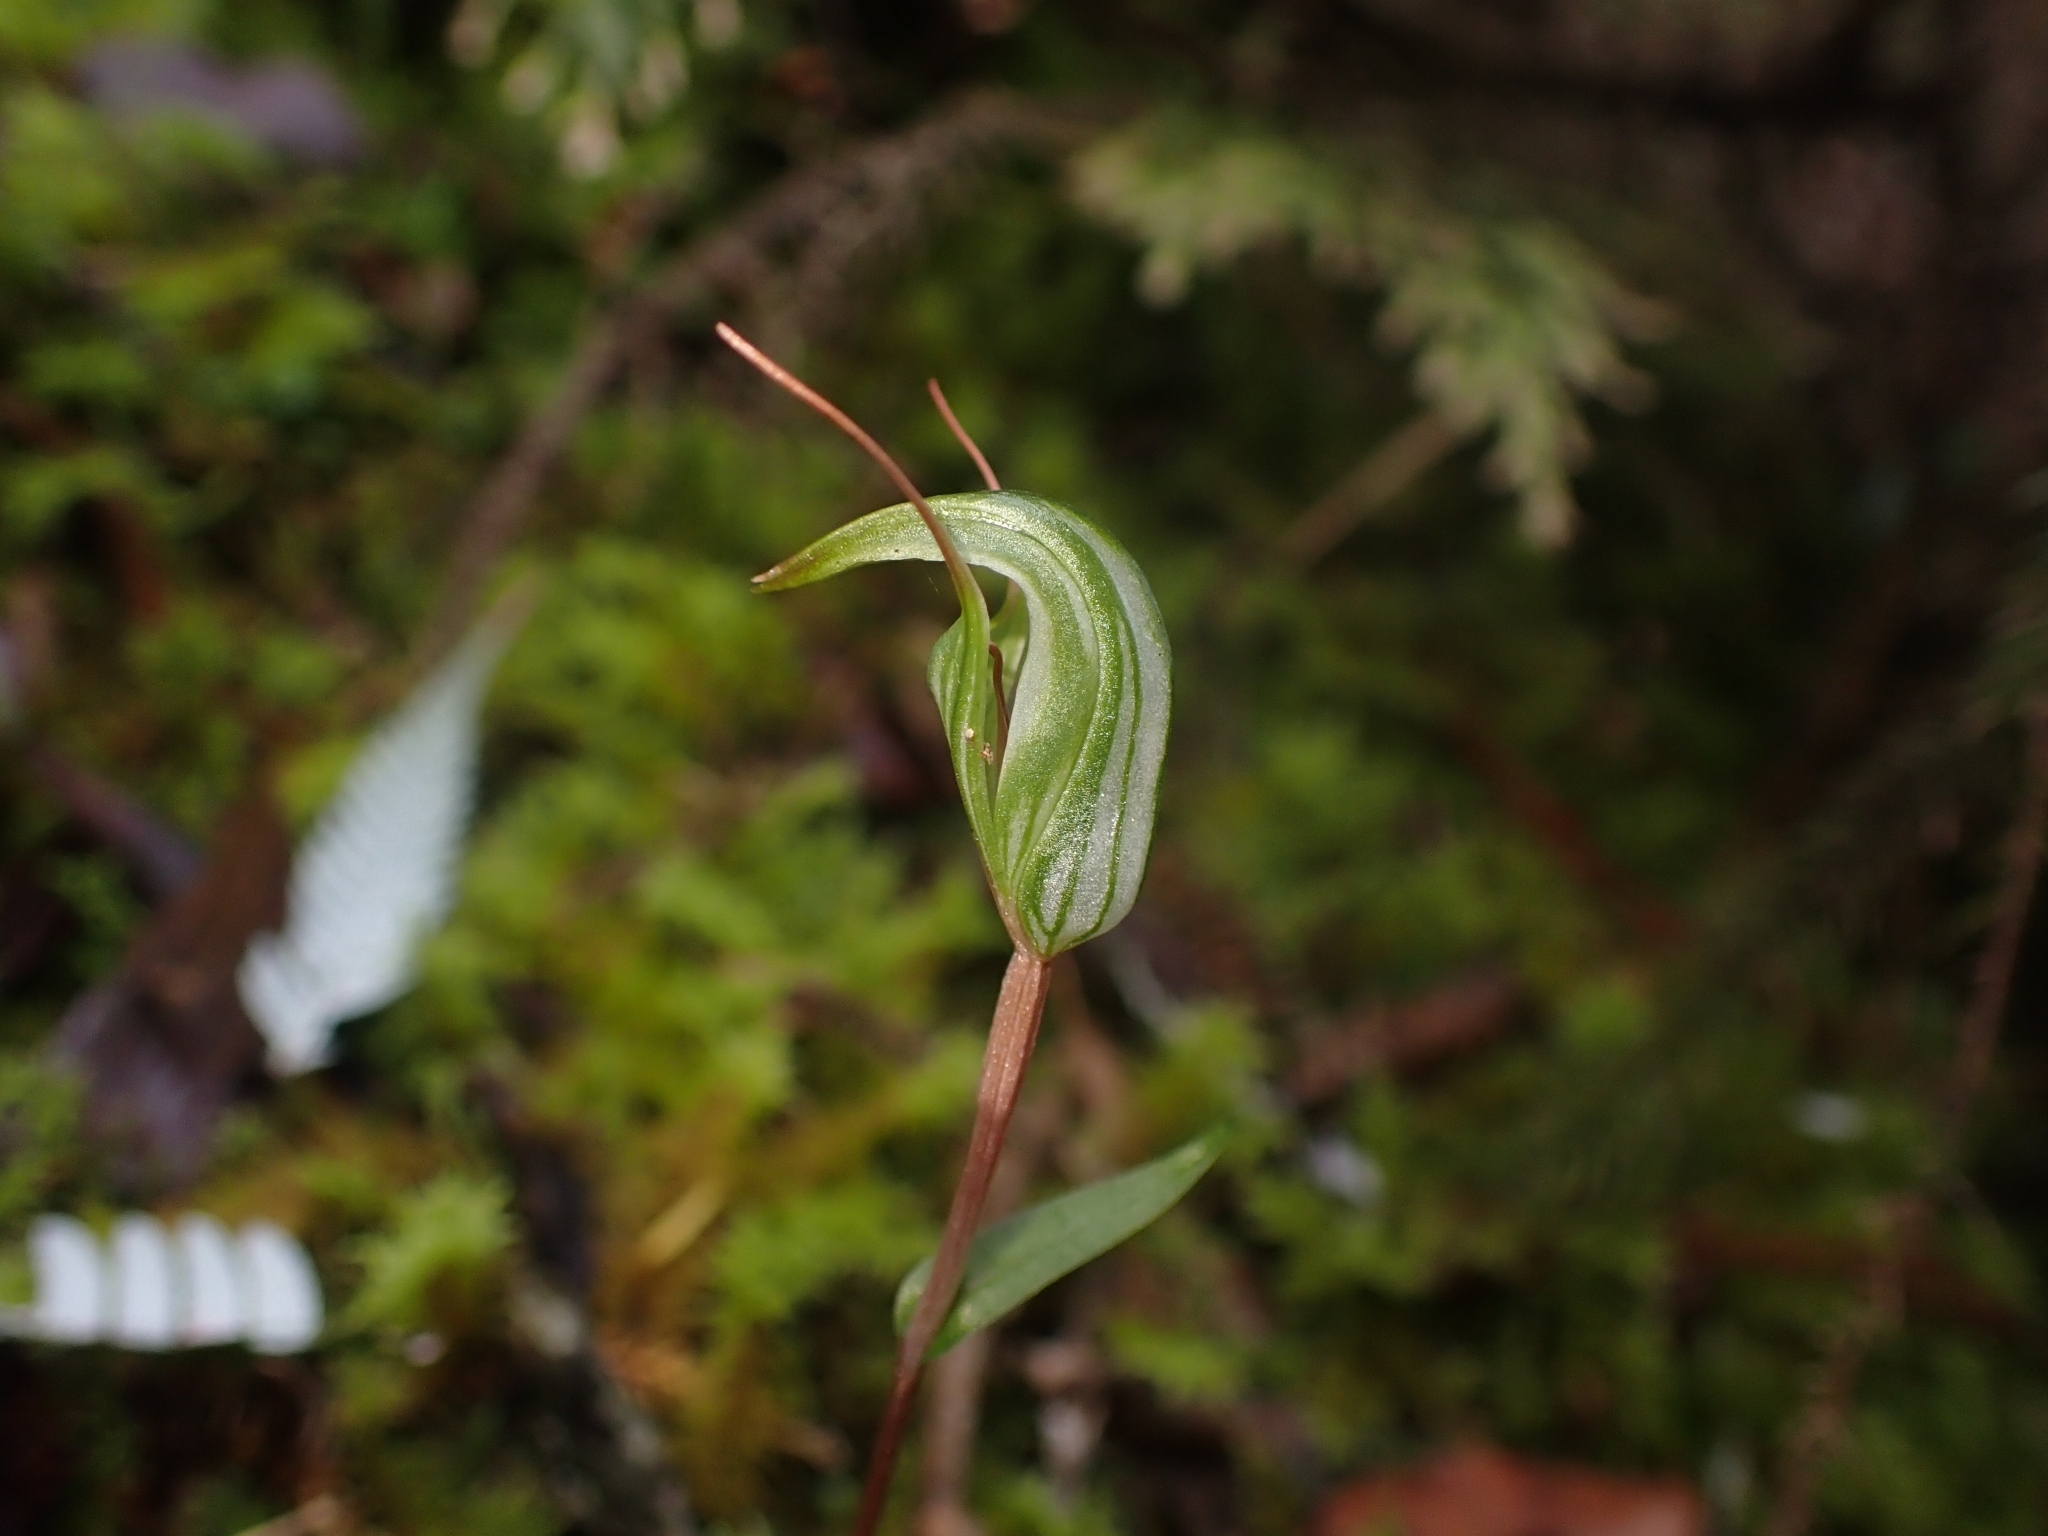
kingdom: Plantae
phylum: Tracheophyta
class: Liliopsida
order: Asparagales
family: Orchidaceae
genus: Pterostylis
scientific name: Pterostylis alobula
